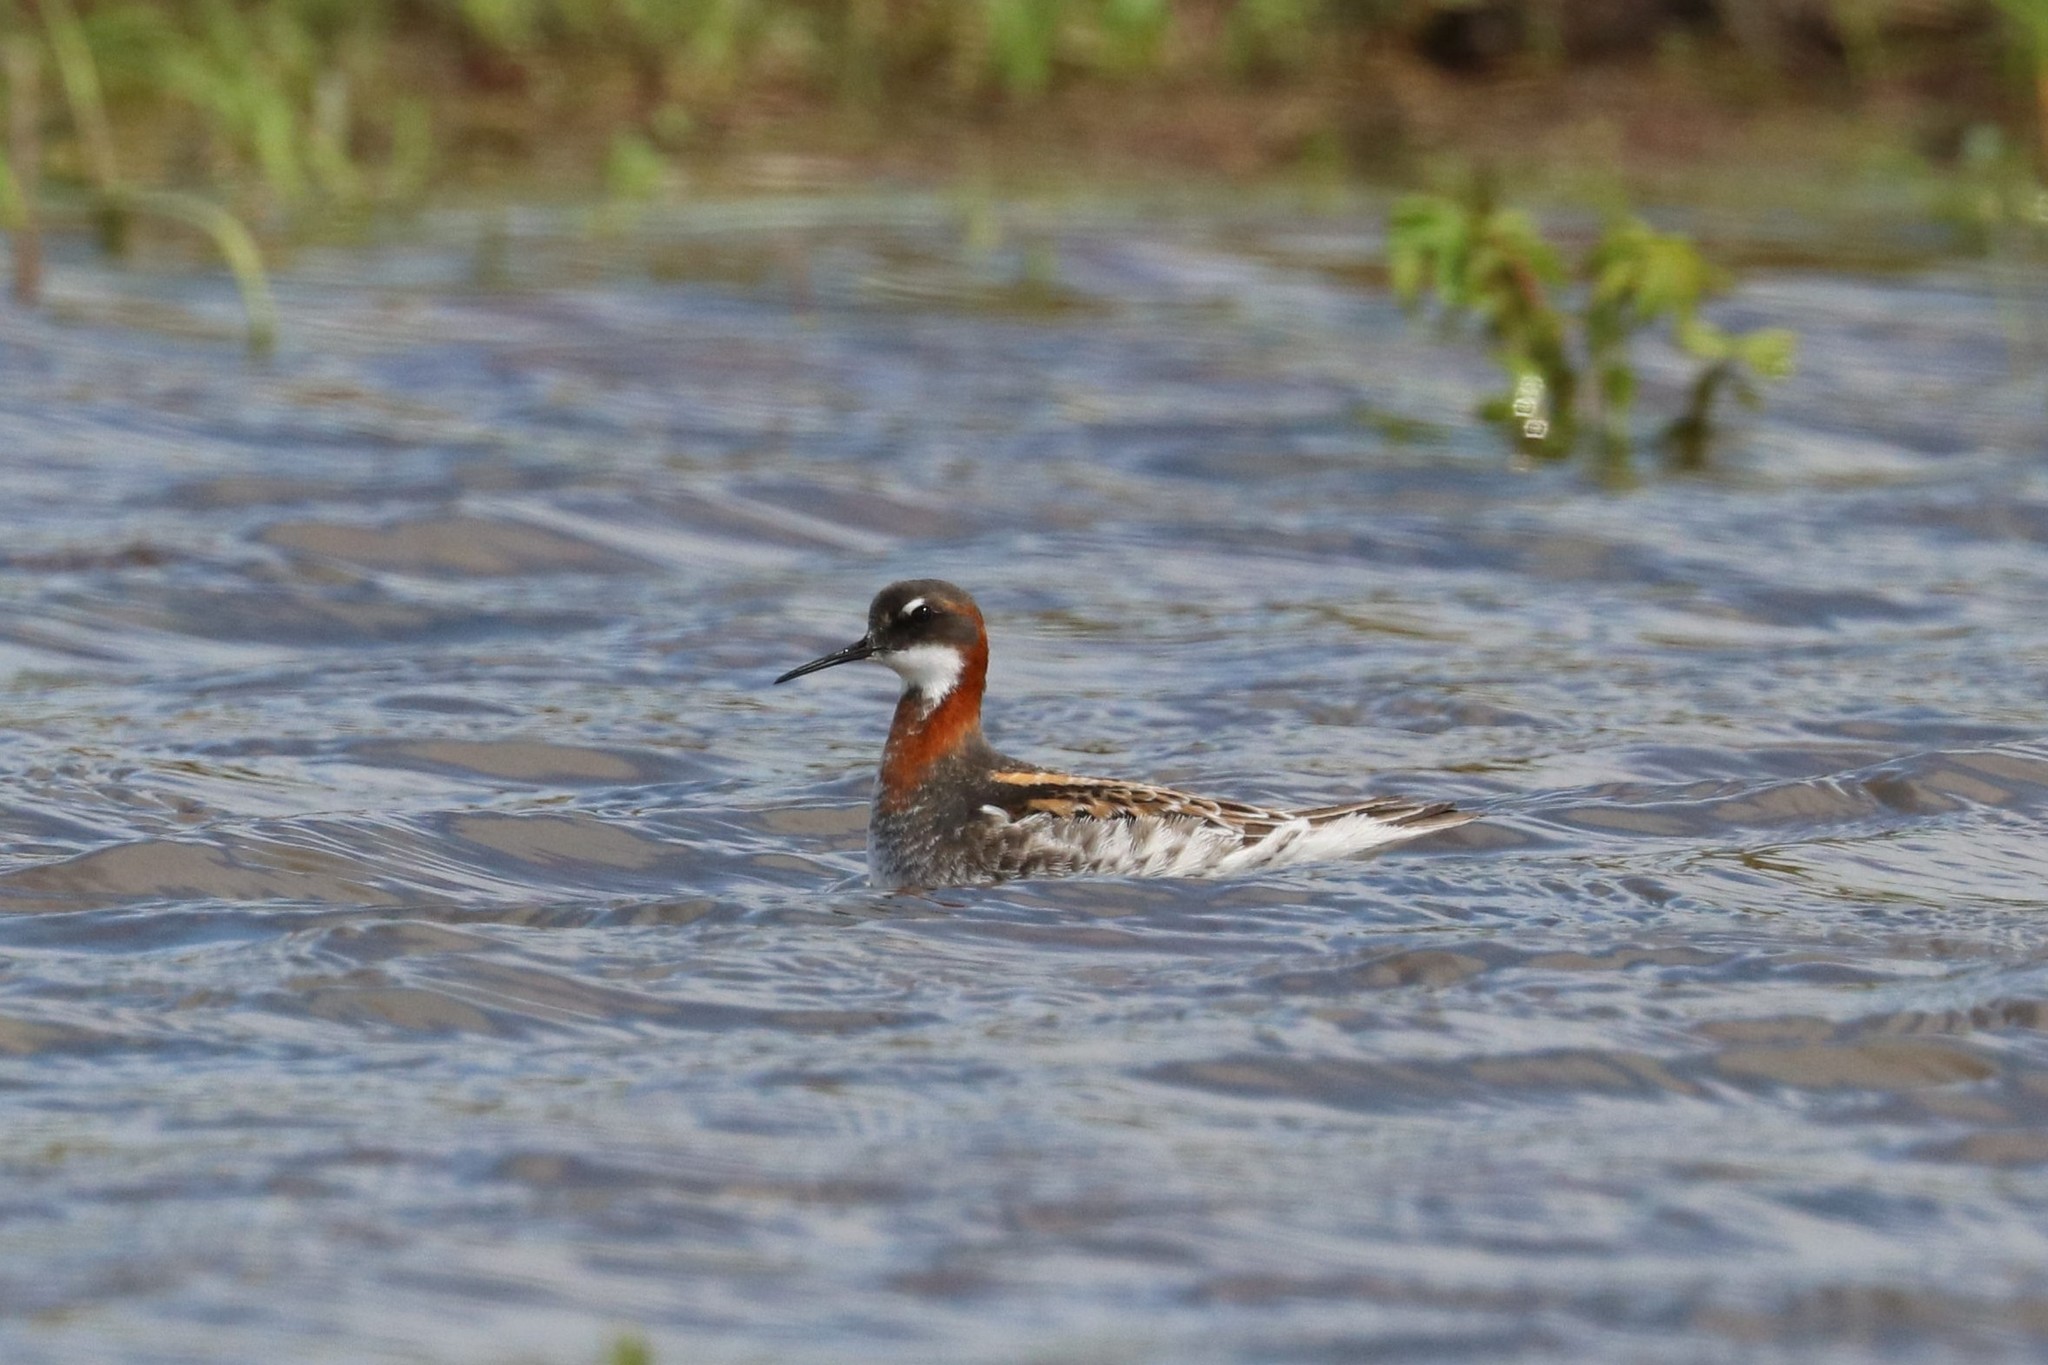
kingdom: Animalia
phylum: Chordata
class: Aves
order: Charadriiformes
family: Scolopacidae
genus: Phalaropus
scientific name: Phalaropus lobatus
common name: Red-necked phalarope
